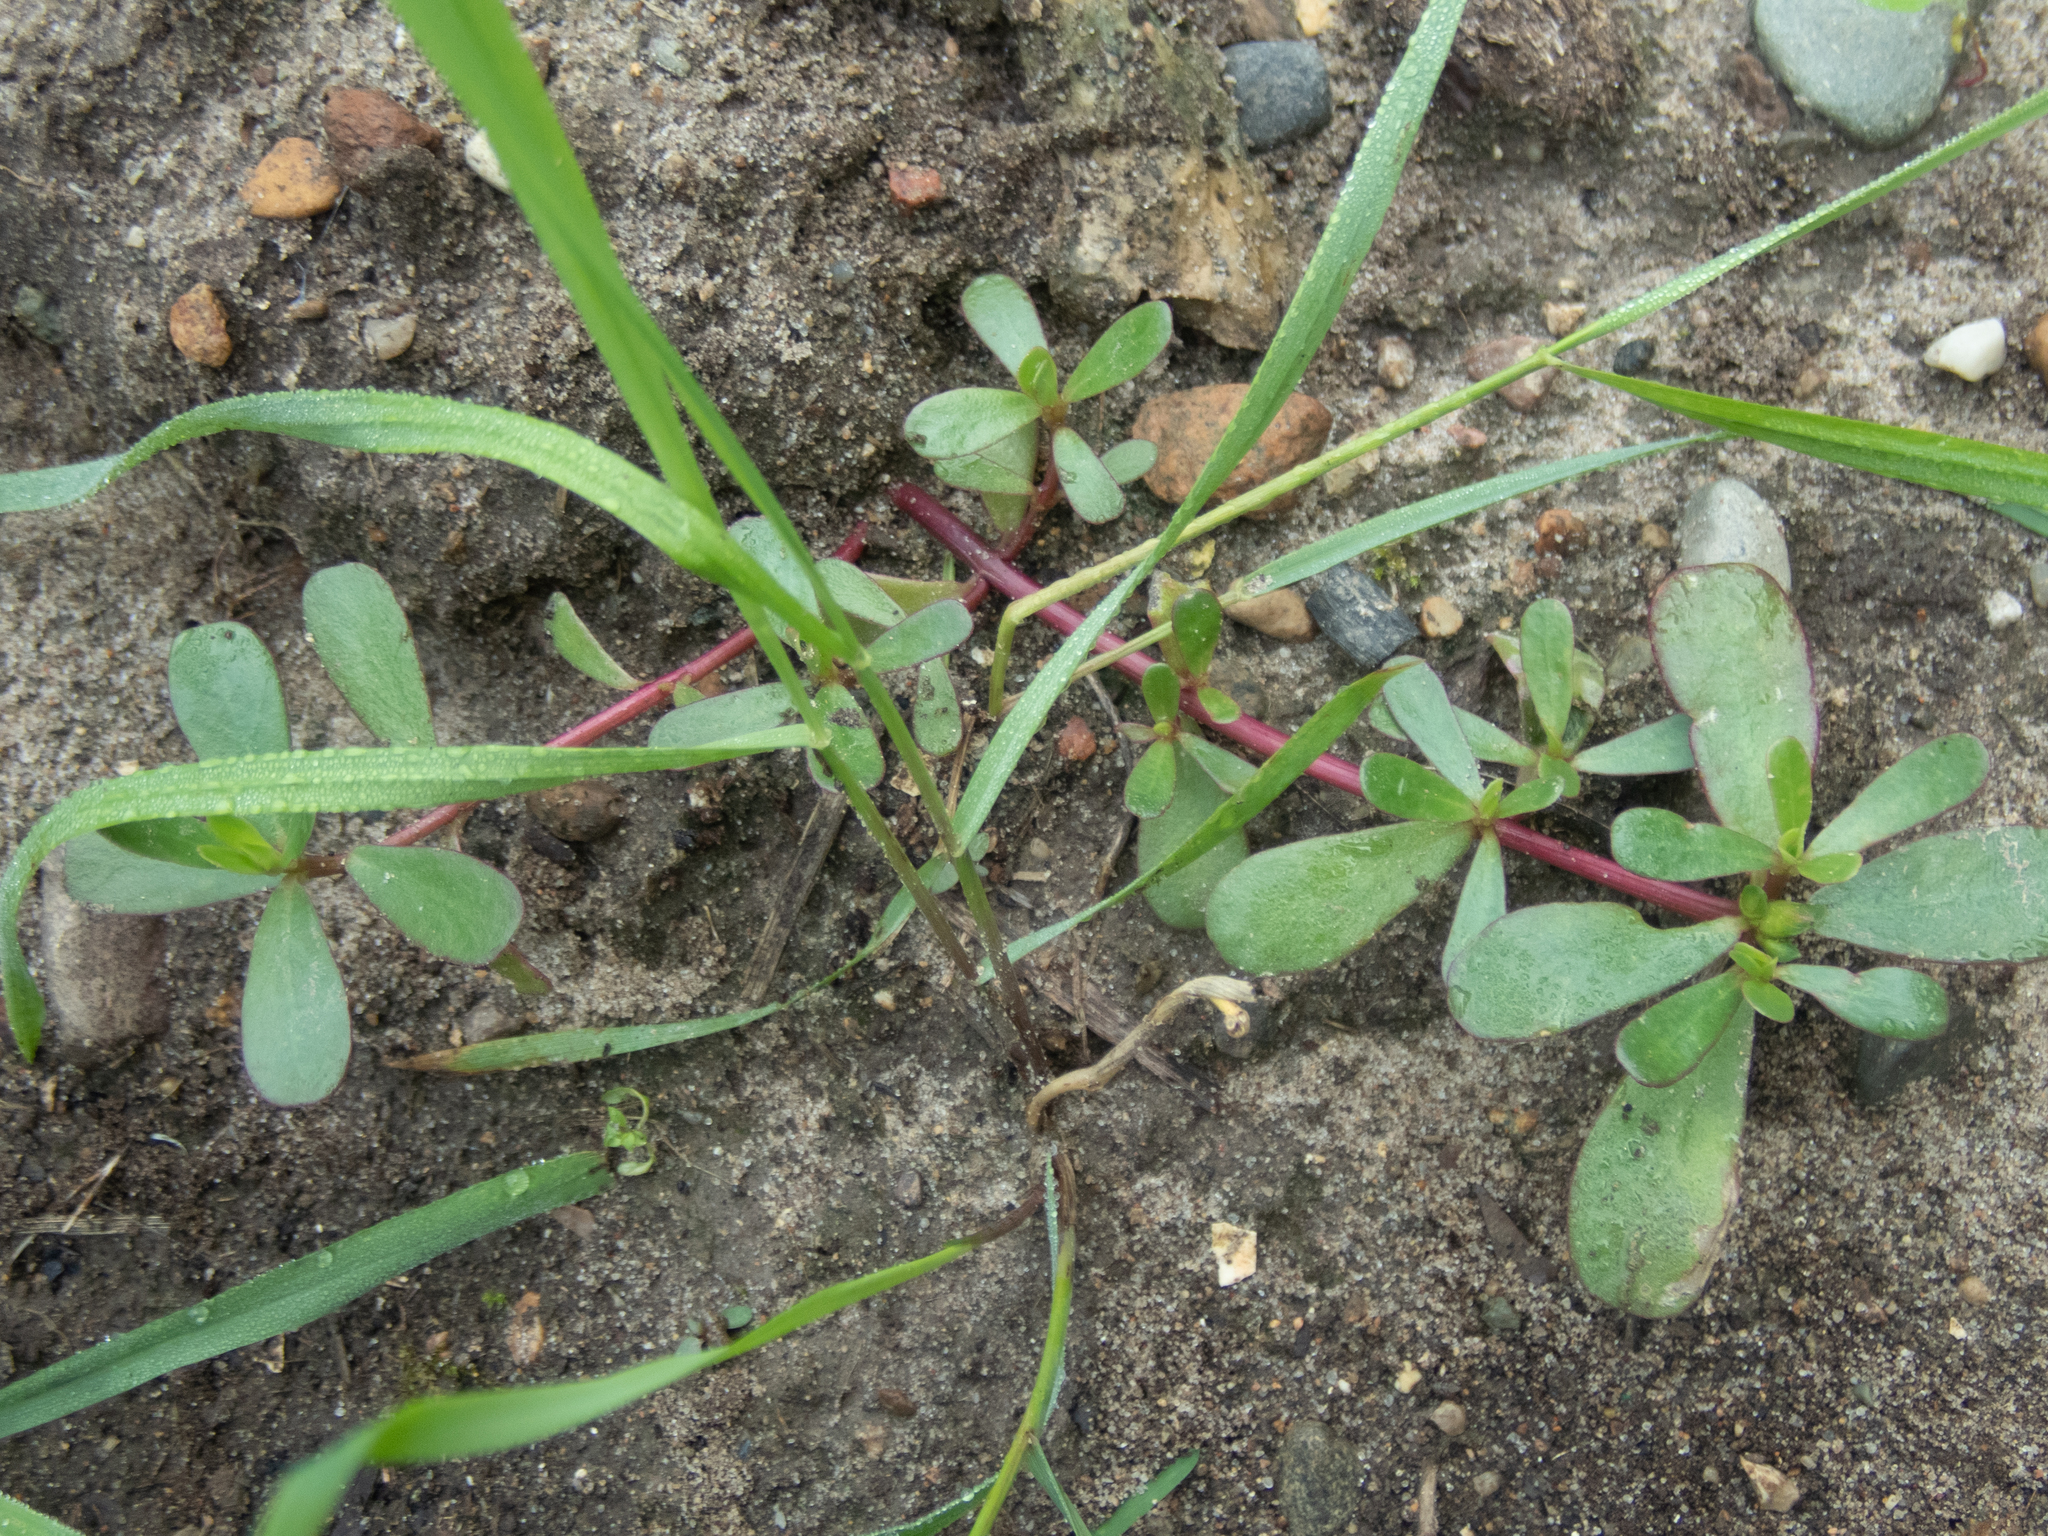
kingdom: Plantae
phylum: Tracheophyta
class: Magnoliopsida
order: Caryophyllales
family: Portulacaceae
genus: Portulaca
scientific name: Portulaca oleracea
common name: Common purslane
